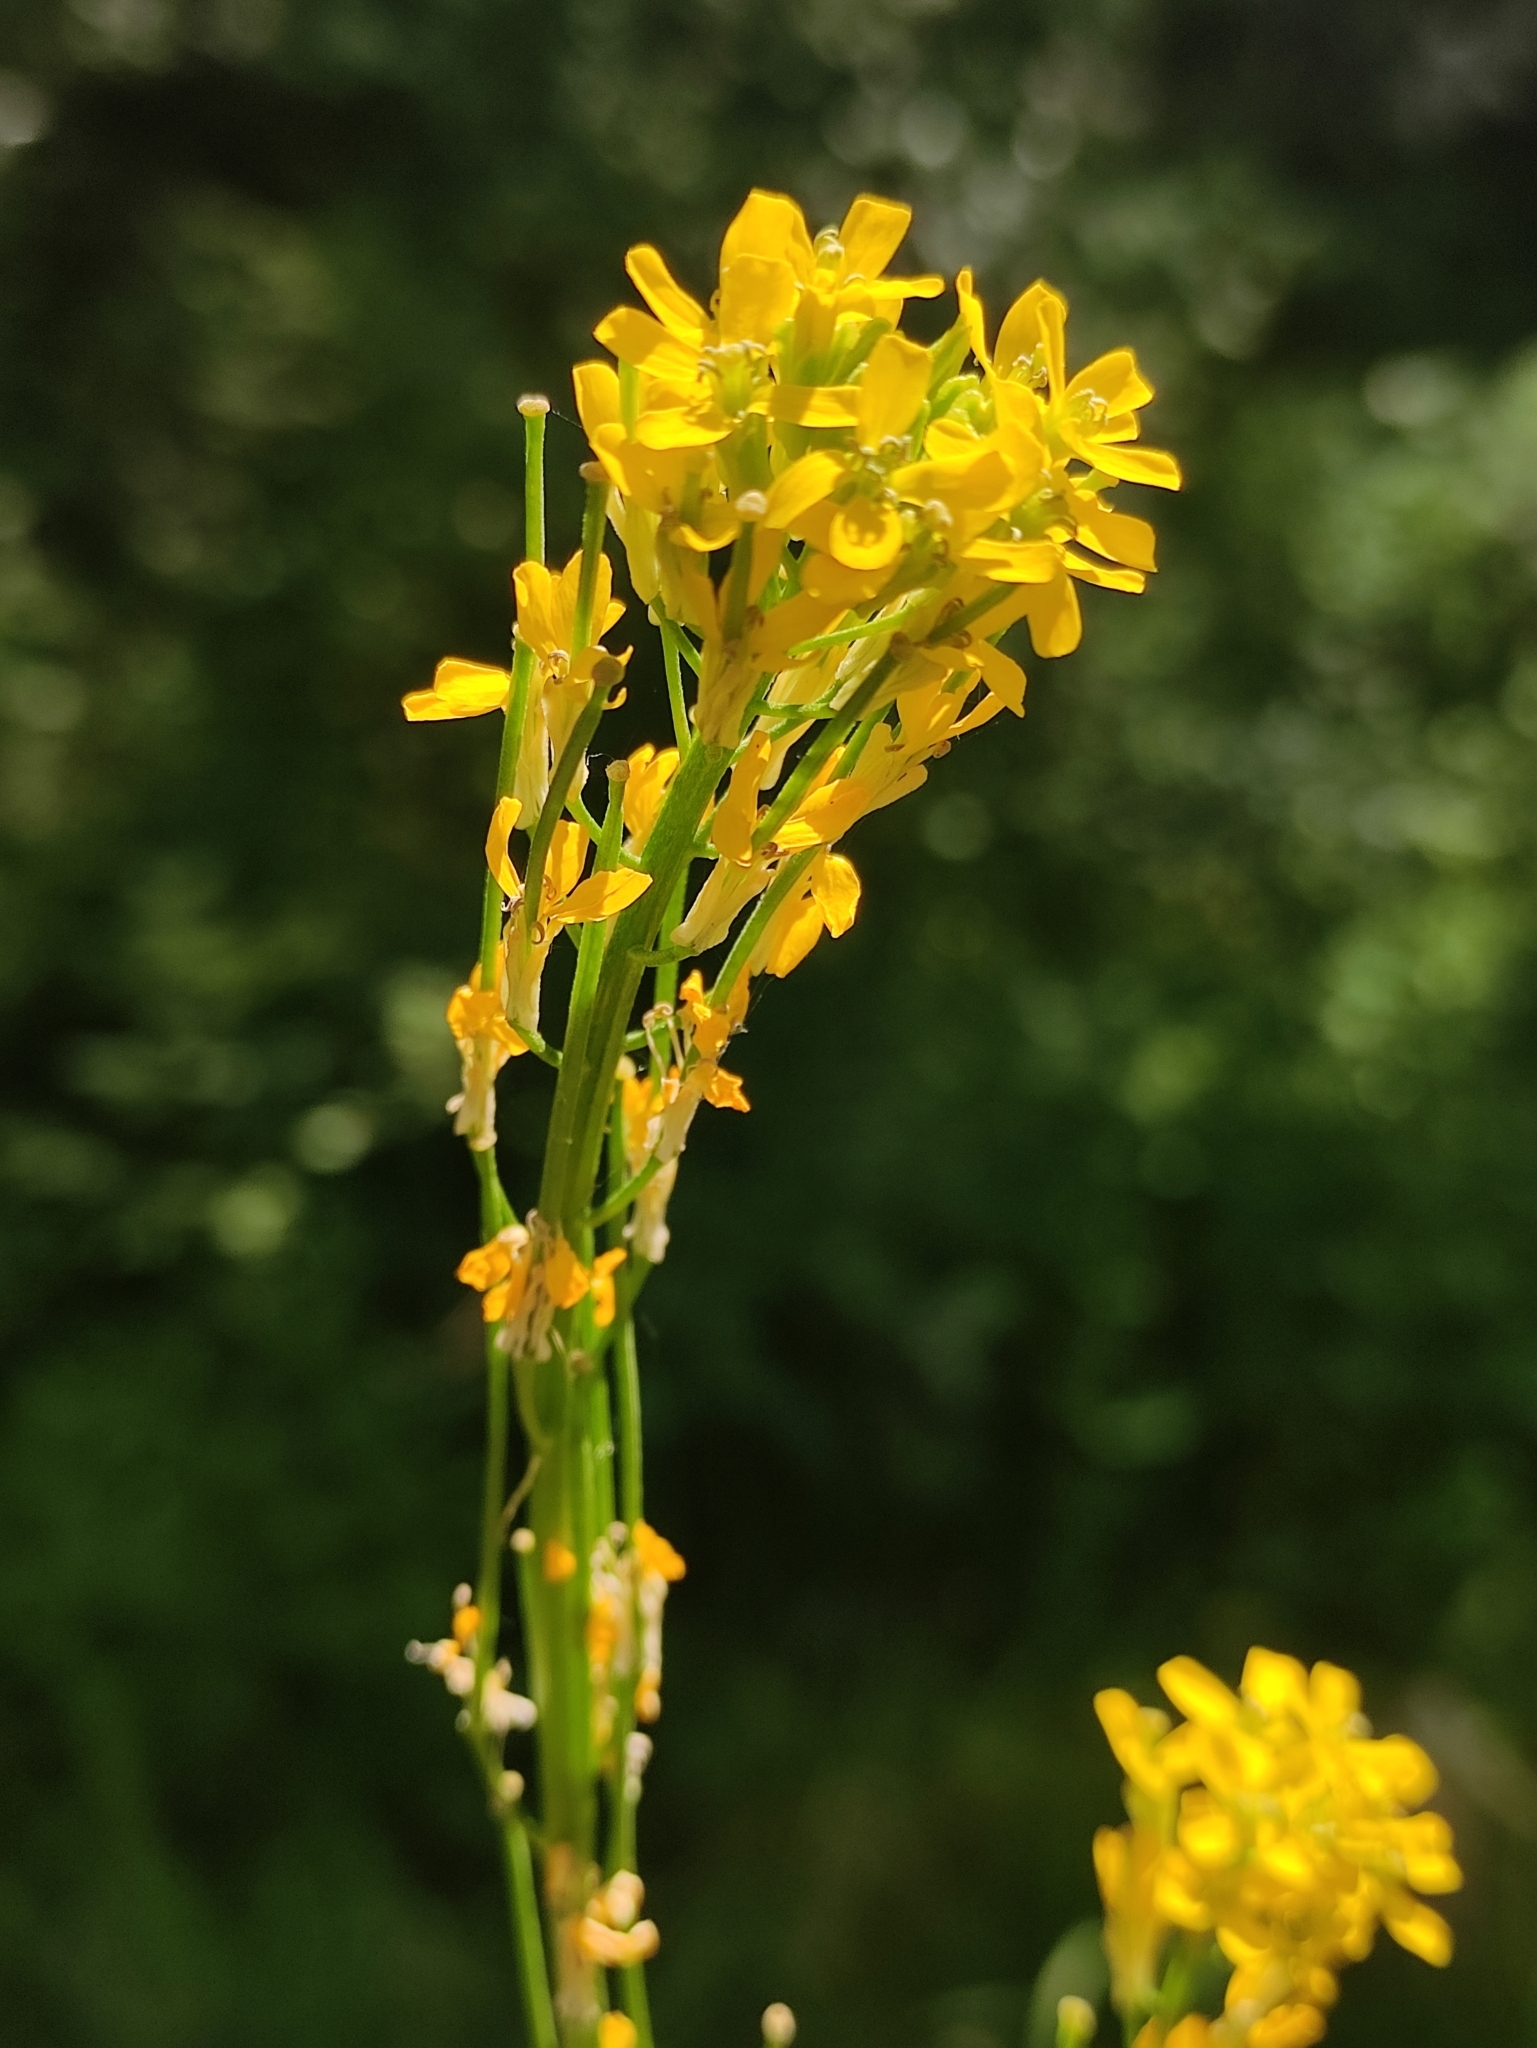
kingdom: Plantae
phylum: Tracheophyta
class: Magnoliopsida
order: Brassicales
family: Brassicaceae
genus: Erysimum
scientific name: Erysimum hieraciifolium
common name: European wallflower
